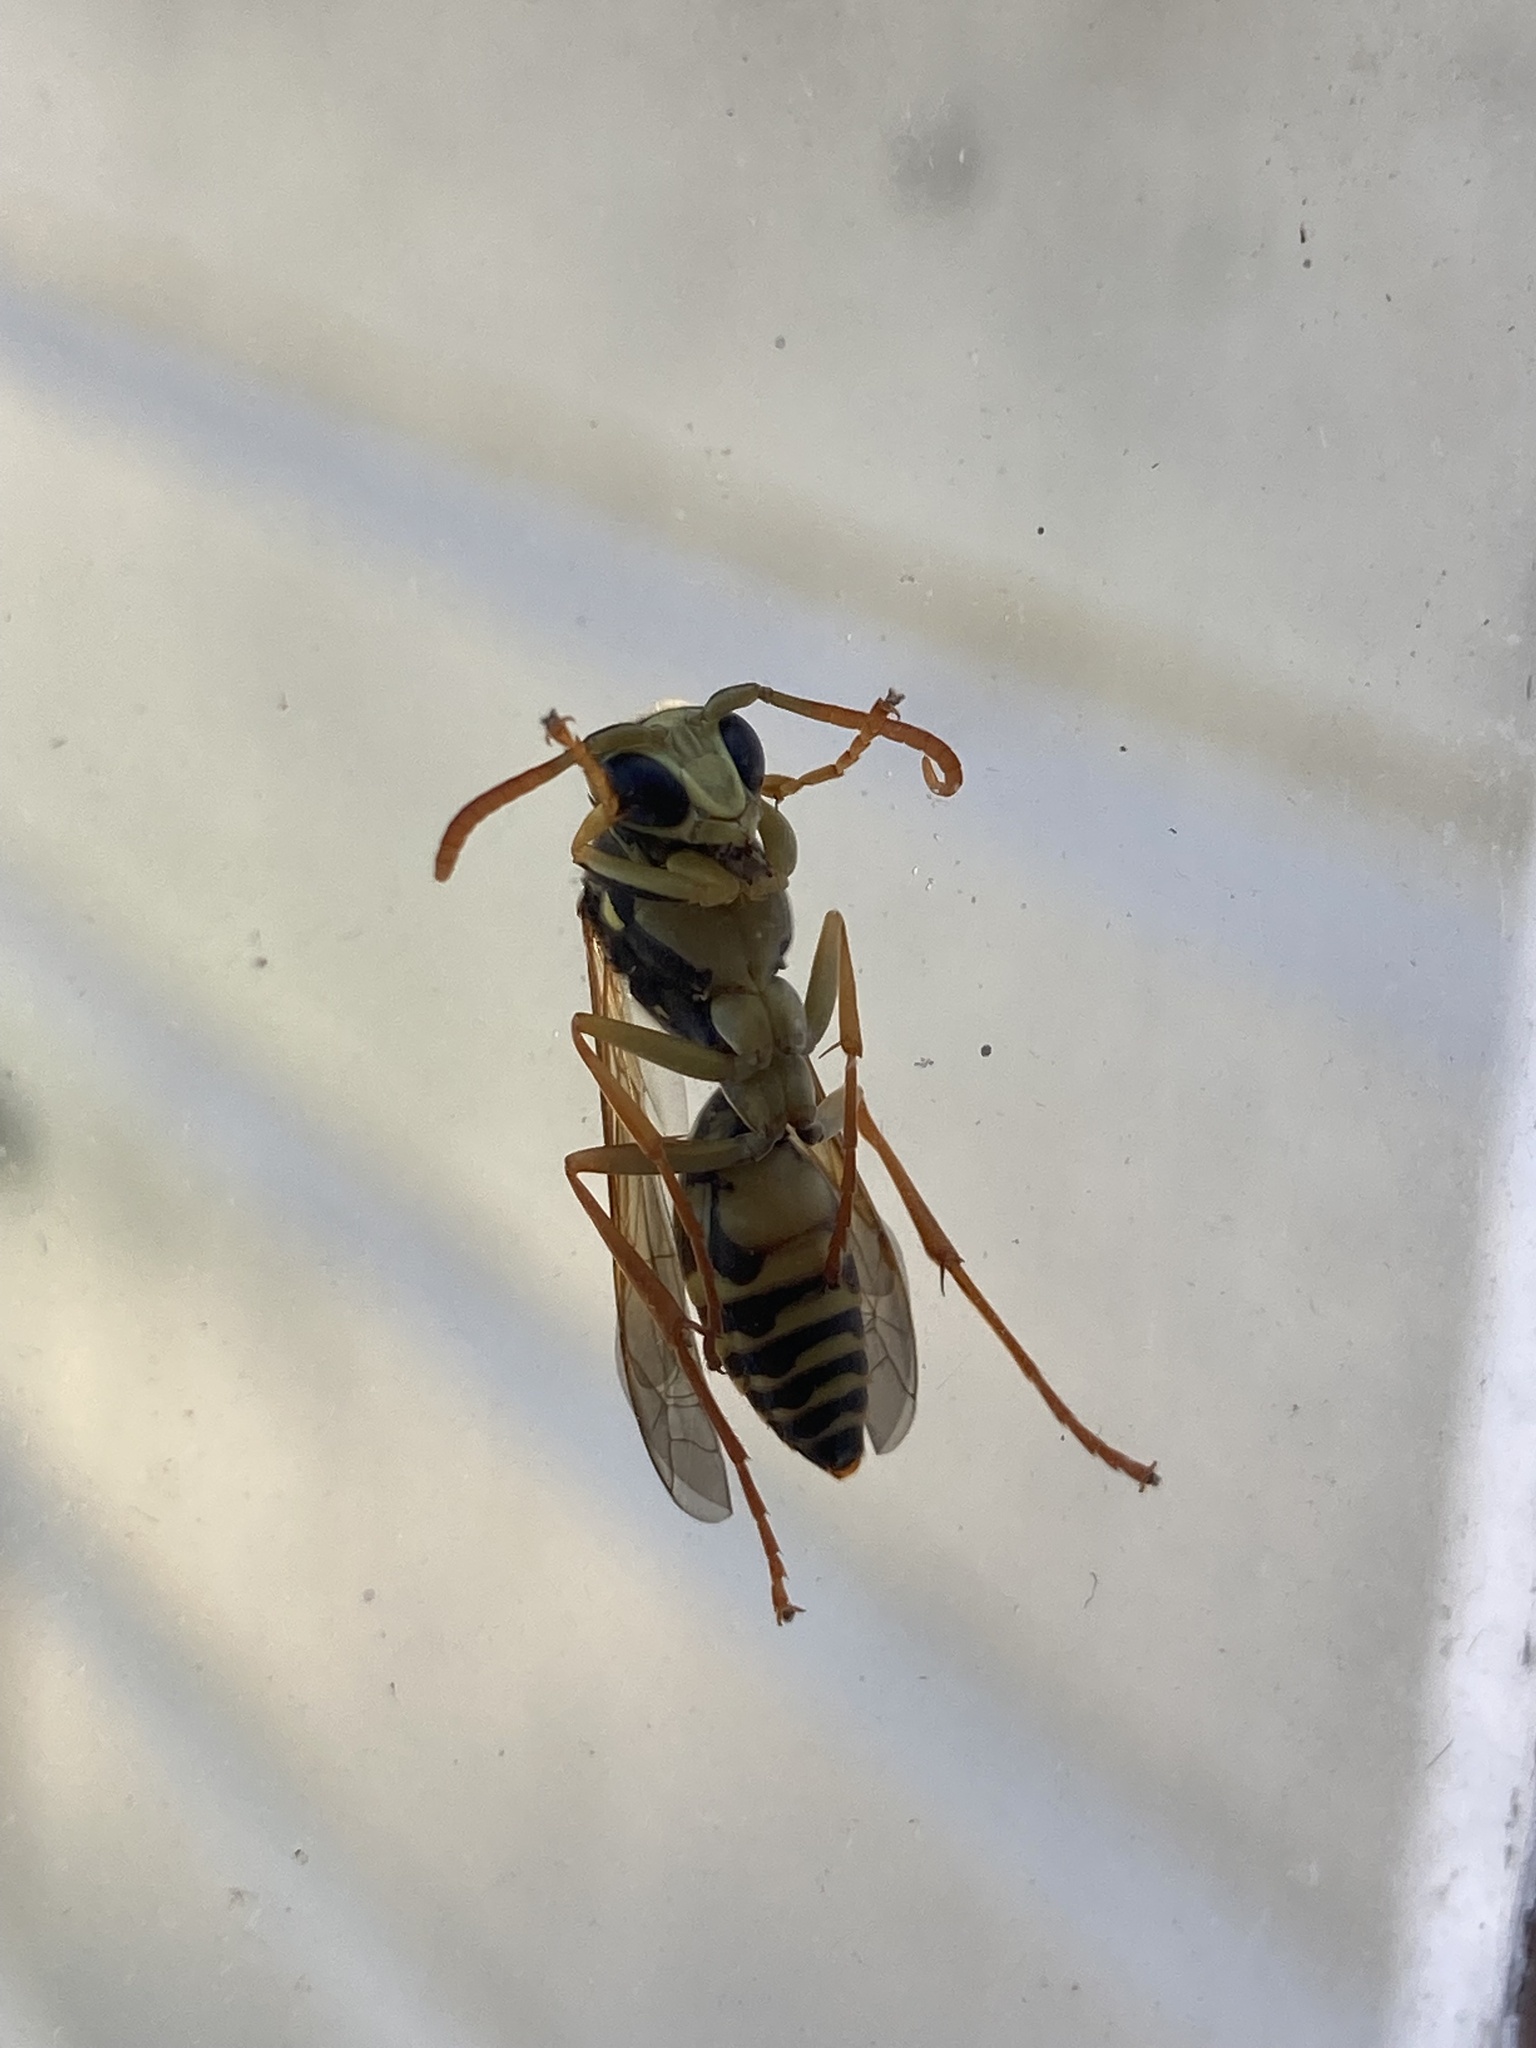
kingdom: Animalia
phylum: Arthropoda
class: Insecta
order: Hymenoptera
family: Eumenidae
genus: Polistes
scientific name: Polistes
